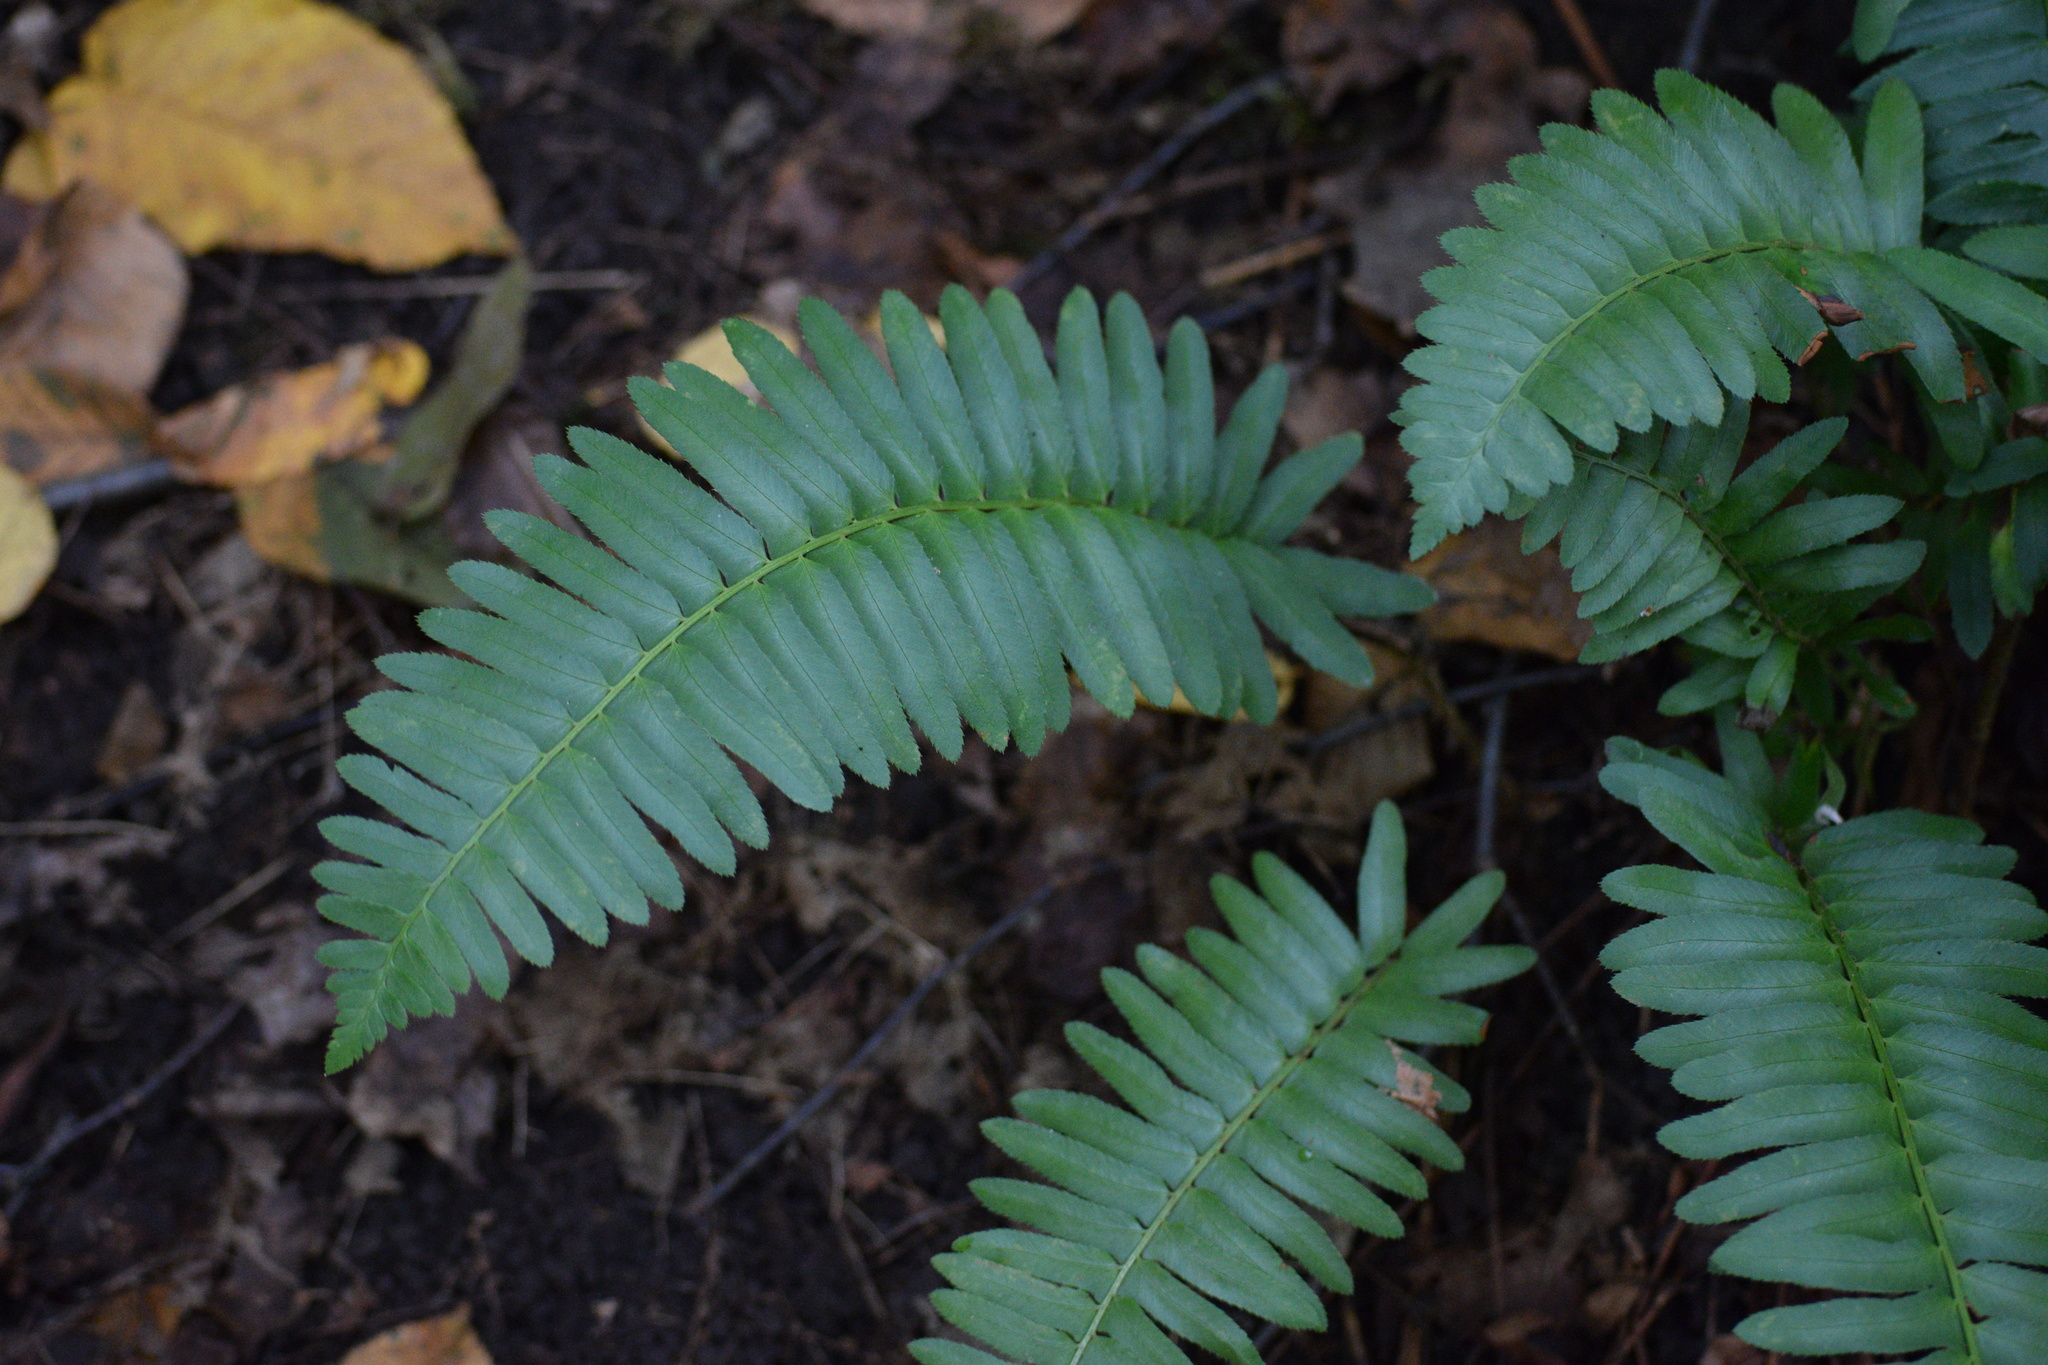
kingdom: Plantae
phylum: Tracheophyta
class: Polypodiopsida
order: Polypodiales
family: Dryopteridaceae
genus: Polystichum
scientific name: Polystichum acrostichoides
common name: Christmas fern
